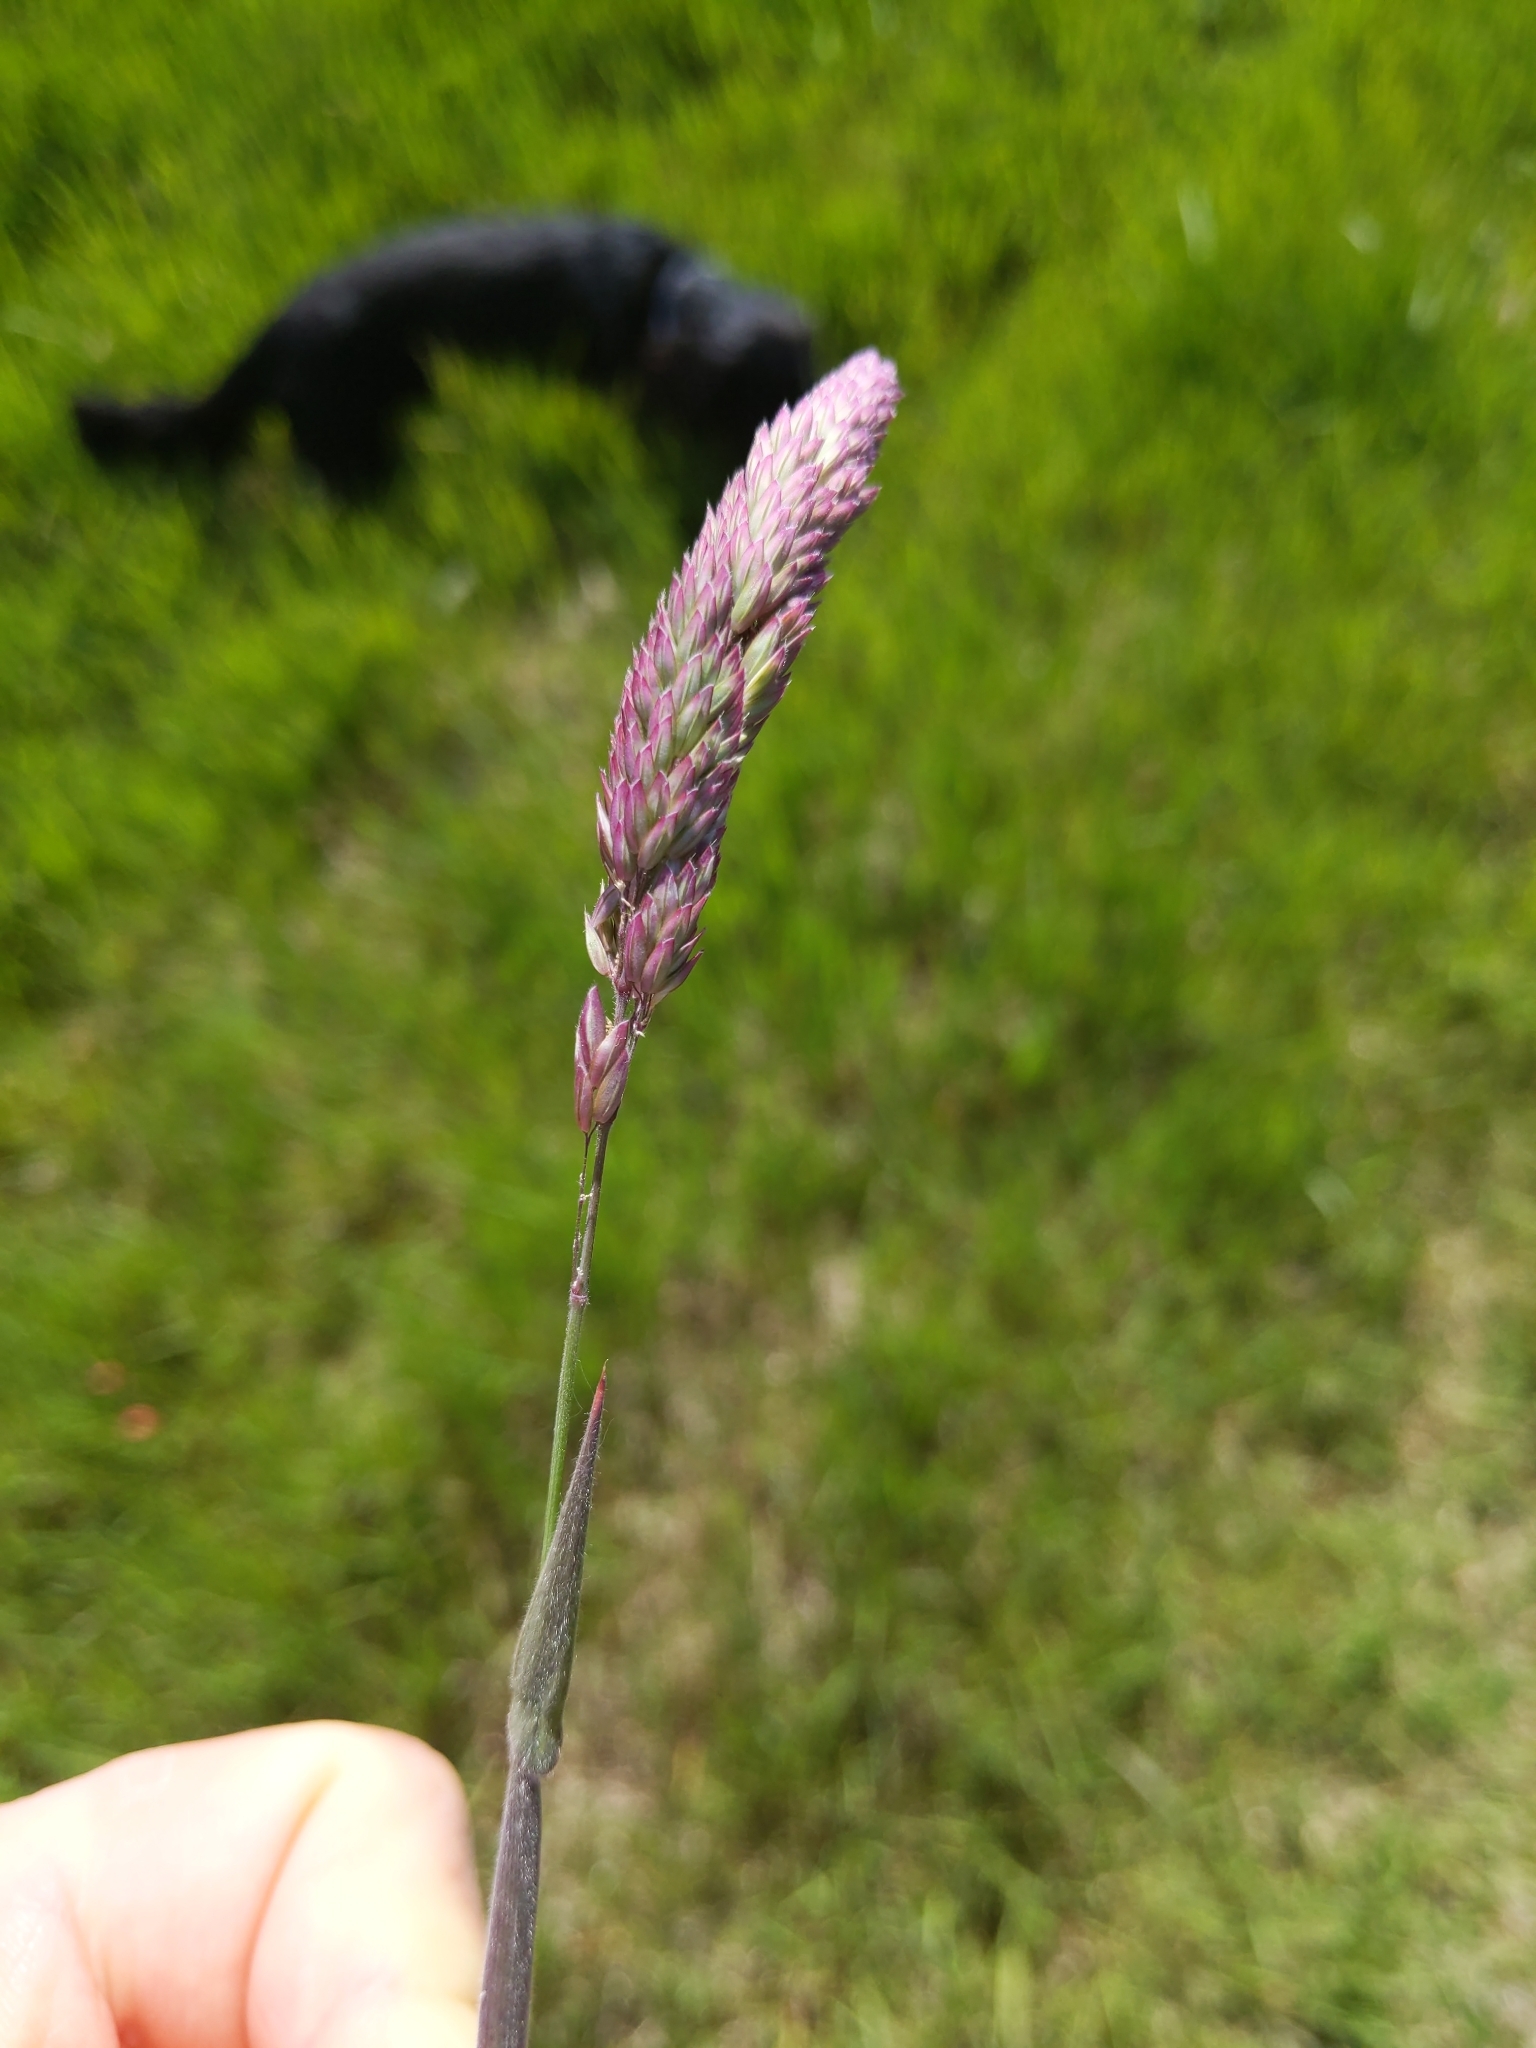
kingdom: Plantae
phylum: Tracheophyta
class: Liliopsida
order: Poales
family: Poaceae
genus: Holcus
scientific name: Holcus lanatus
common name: Yorkshire-fog
